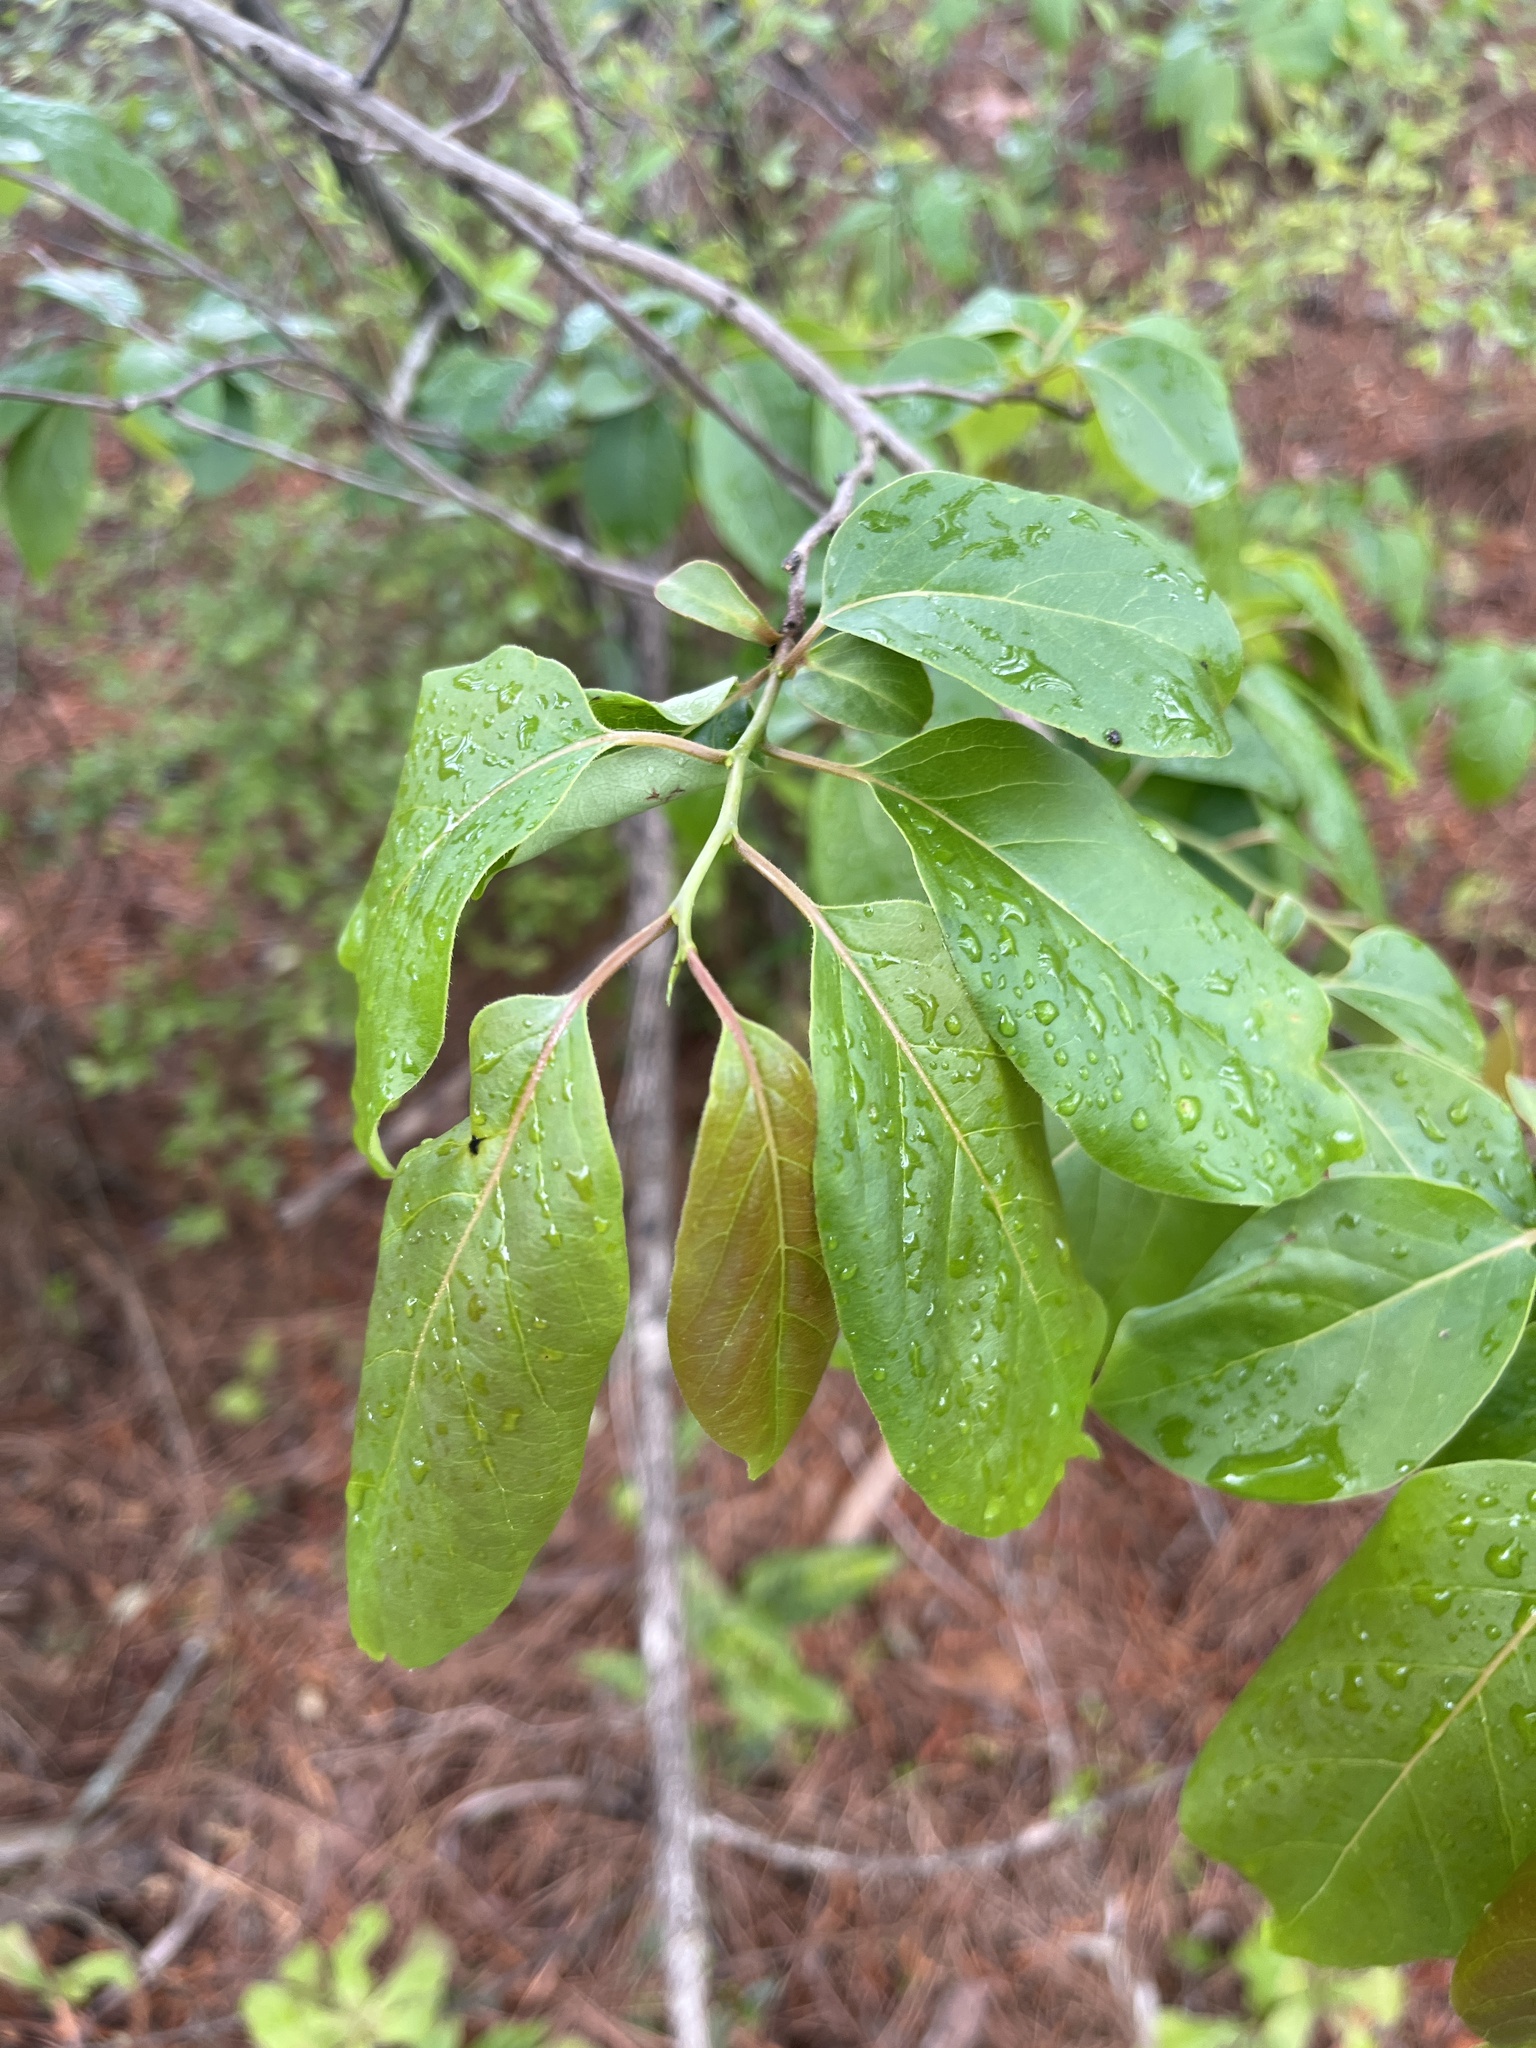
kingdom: Plantae
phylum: Tracheophyta
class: Magnoliopsida
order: Ericales
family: Ebenaceae
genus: Diospyros
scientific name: Diospyros virginiana
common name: Persimmon
